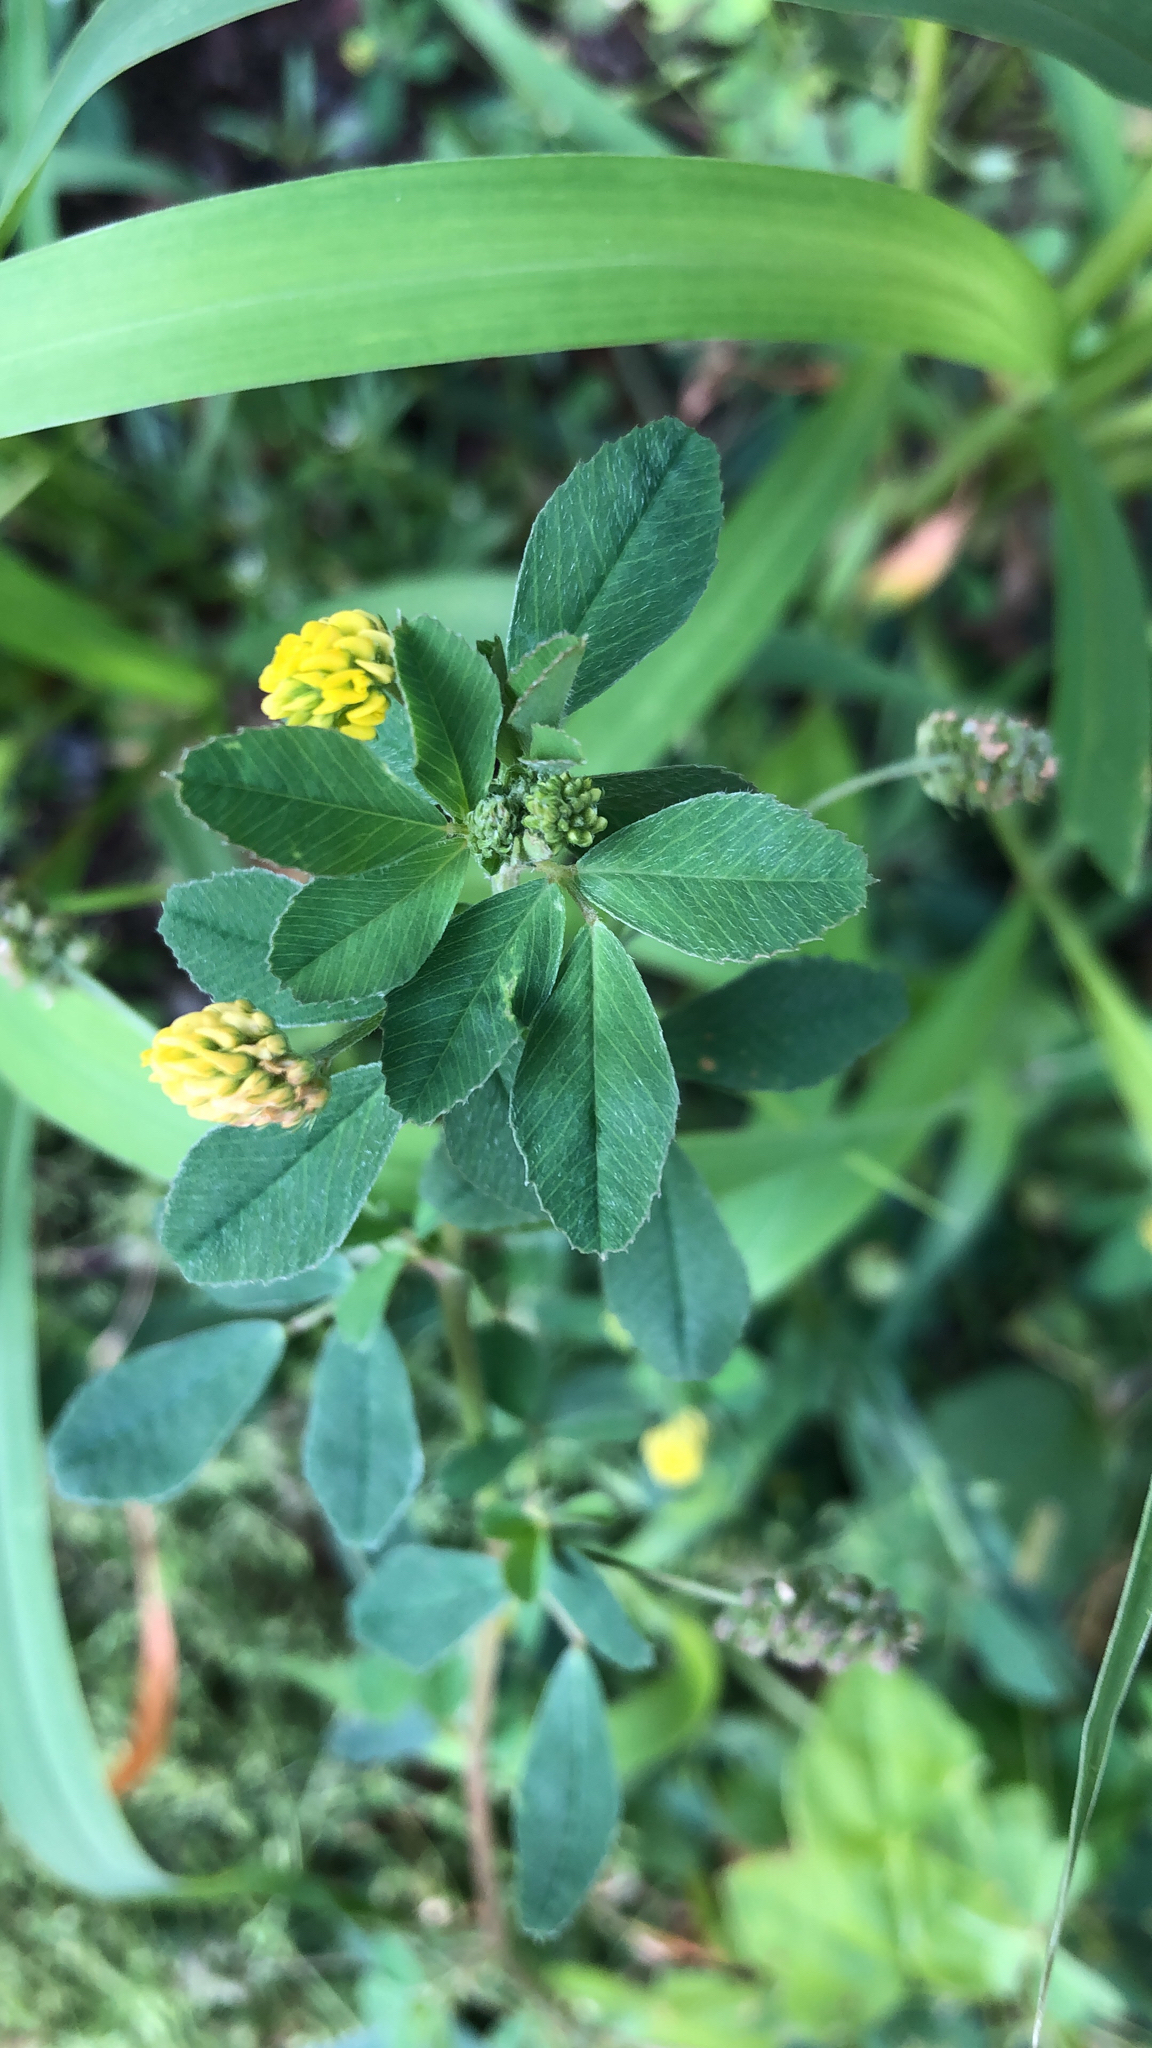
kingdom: Plantae
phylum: Tracheophyta
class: Magnoliopsida
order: Fabales
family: Fabaceae
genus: Medicago
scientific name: Medicago lupulina
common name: Black medick
